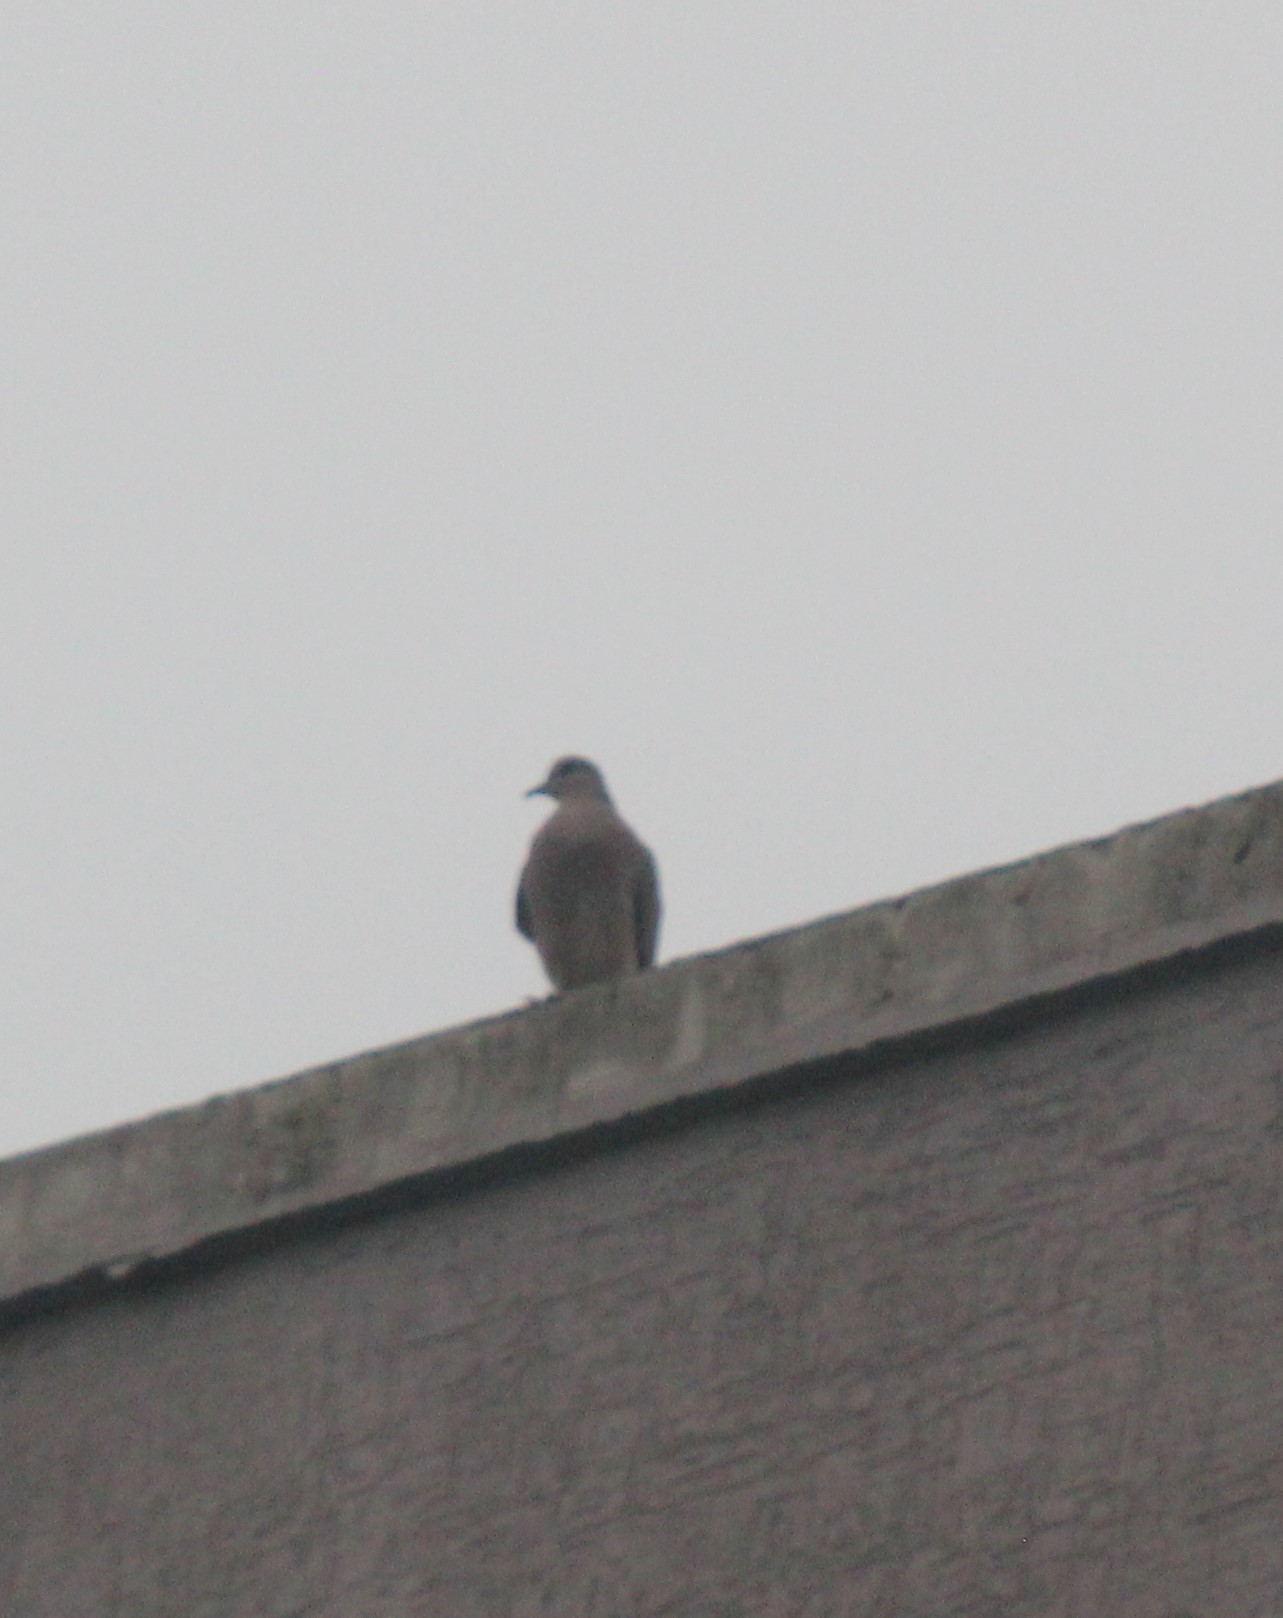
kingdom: Animalia
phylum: Chordata
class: Aves
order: Columbiformes
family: Columbidae
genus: Spilopelia
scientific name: Spilopelia senegalensis
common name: Laughing dove
